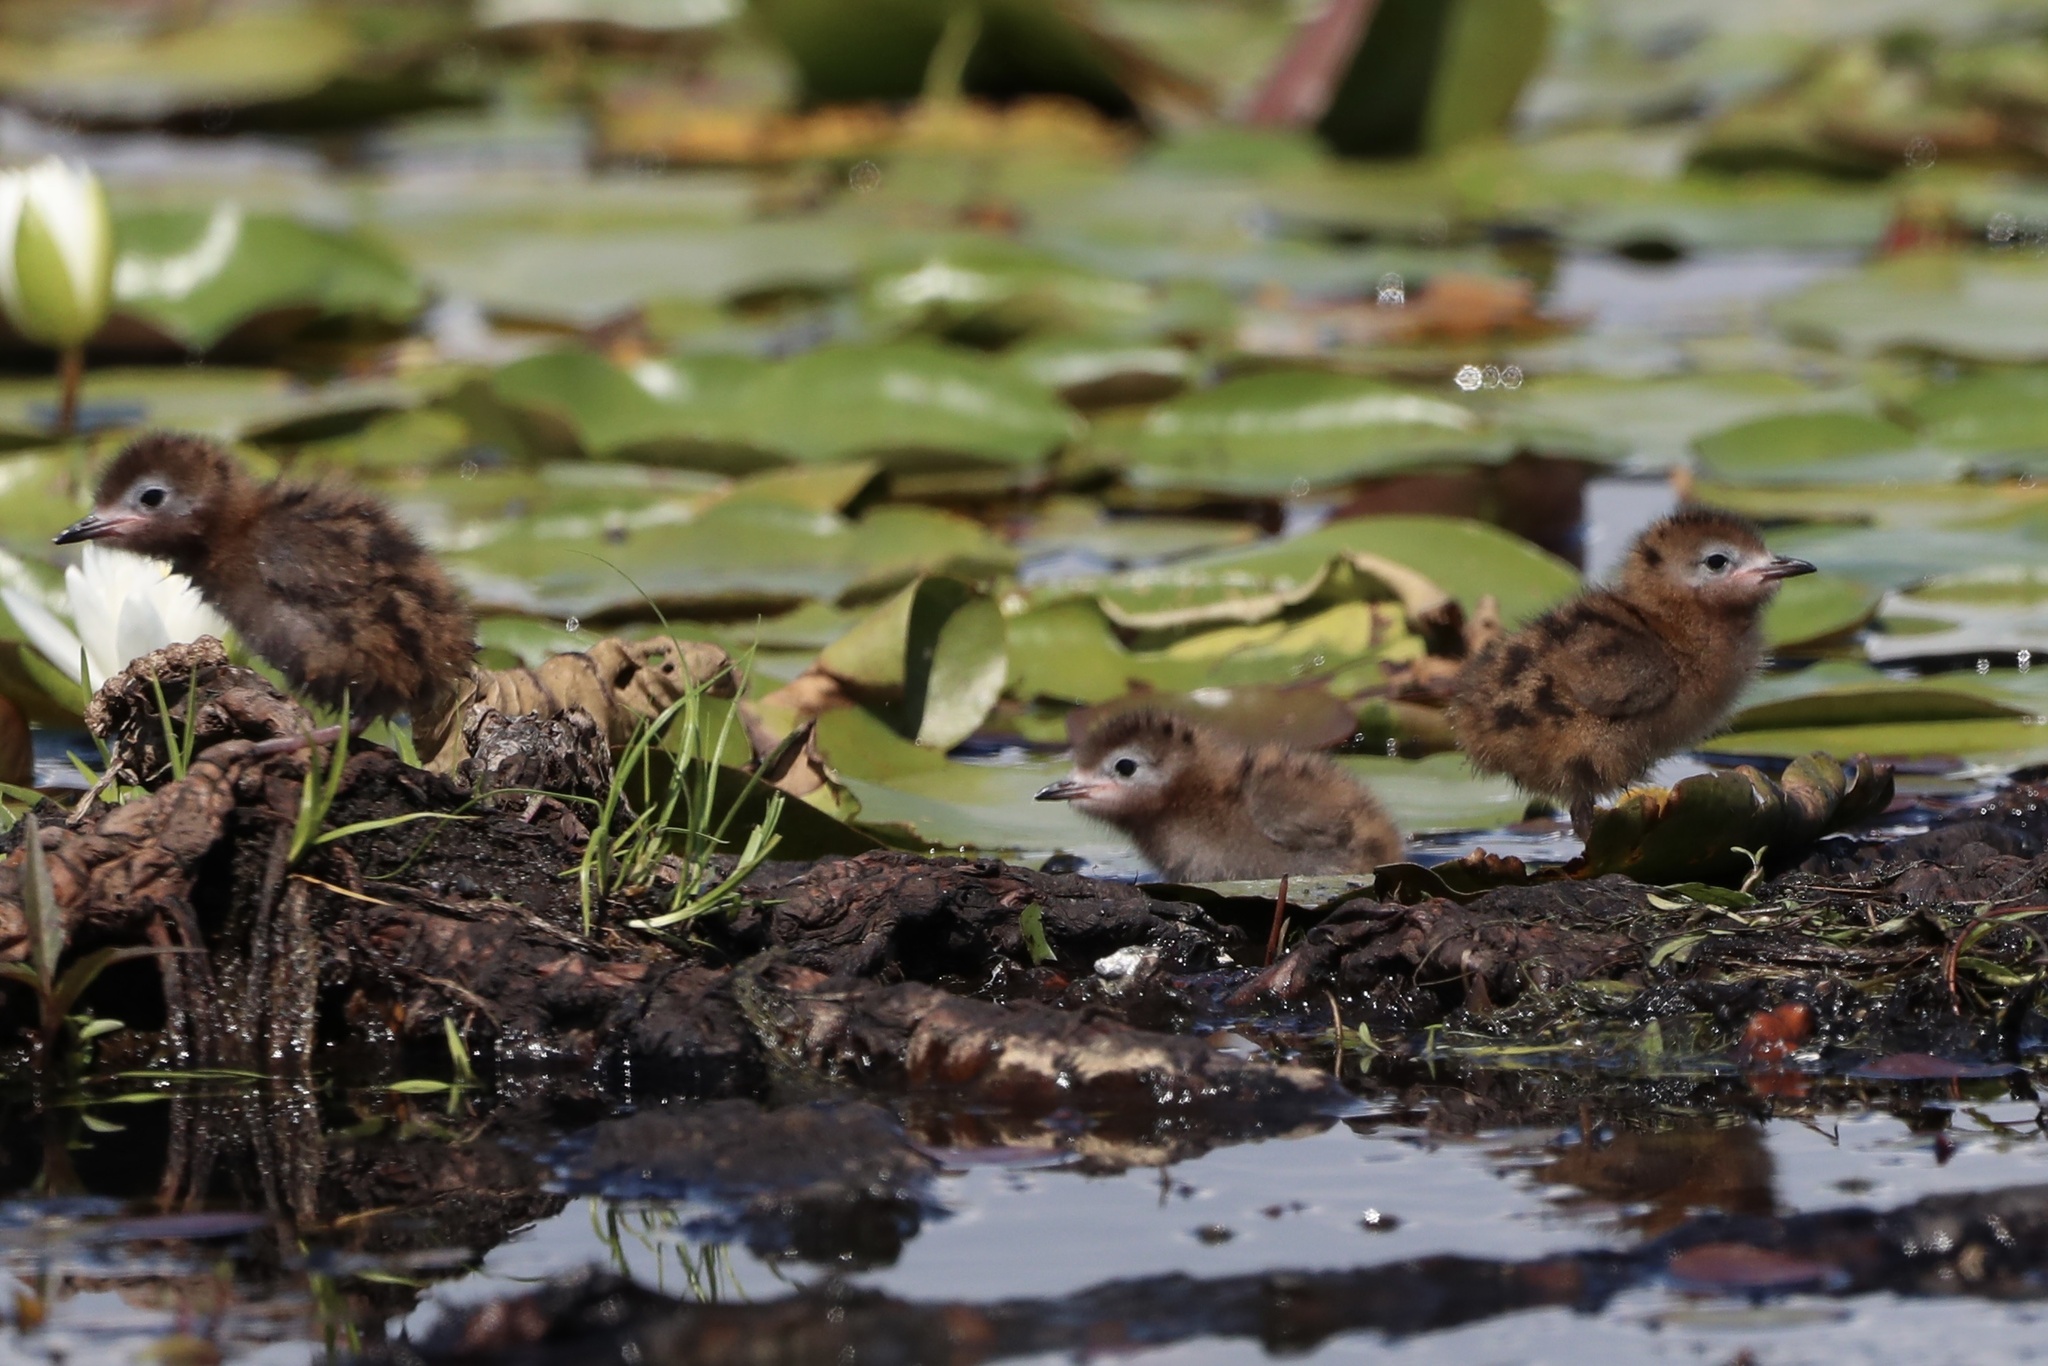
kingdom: Animalia
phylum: Chordata
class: Aves
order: Charadriiformes
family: Laridae
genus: Chlidonias
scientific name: Chlidonias niger
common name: Black tern
